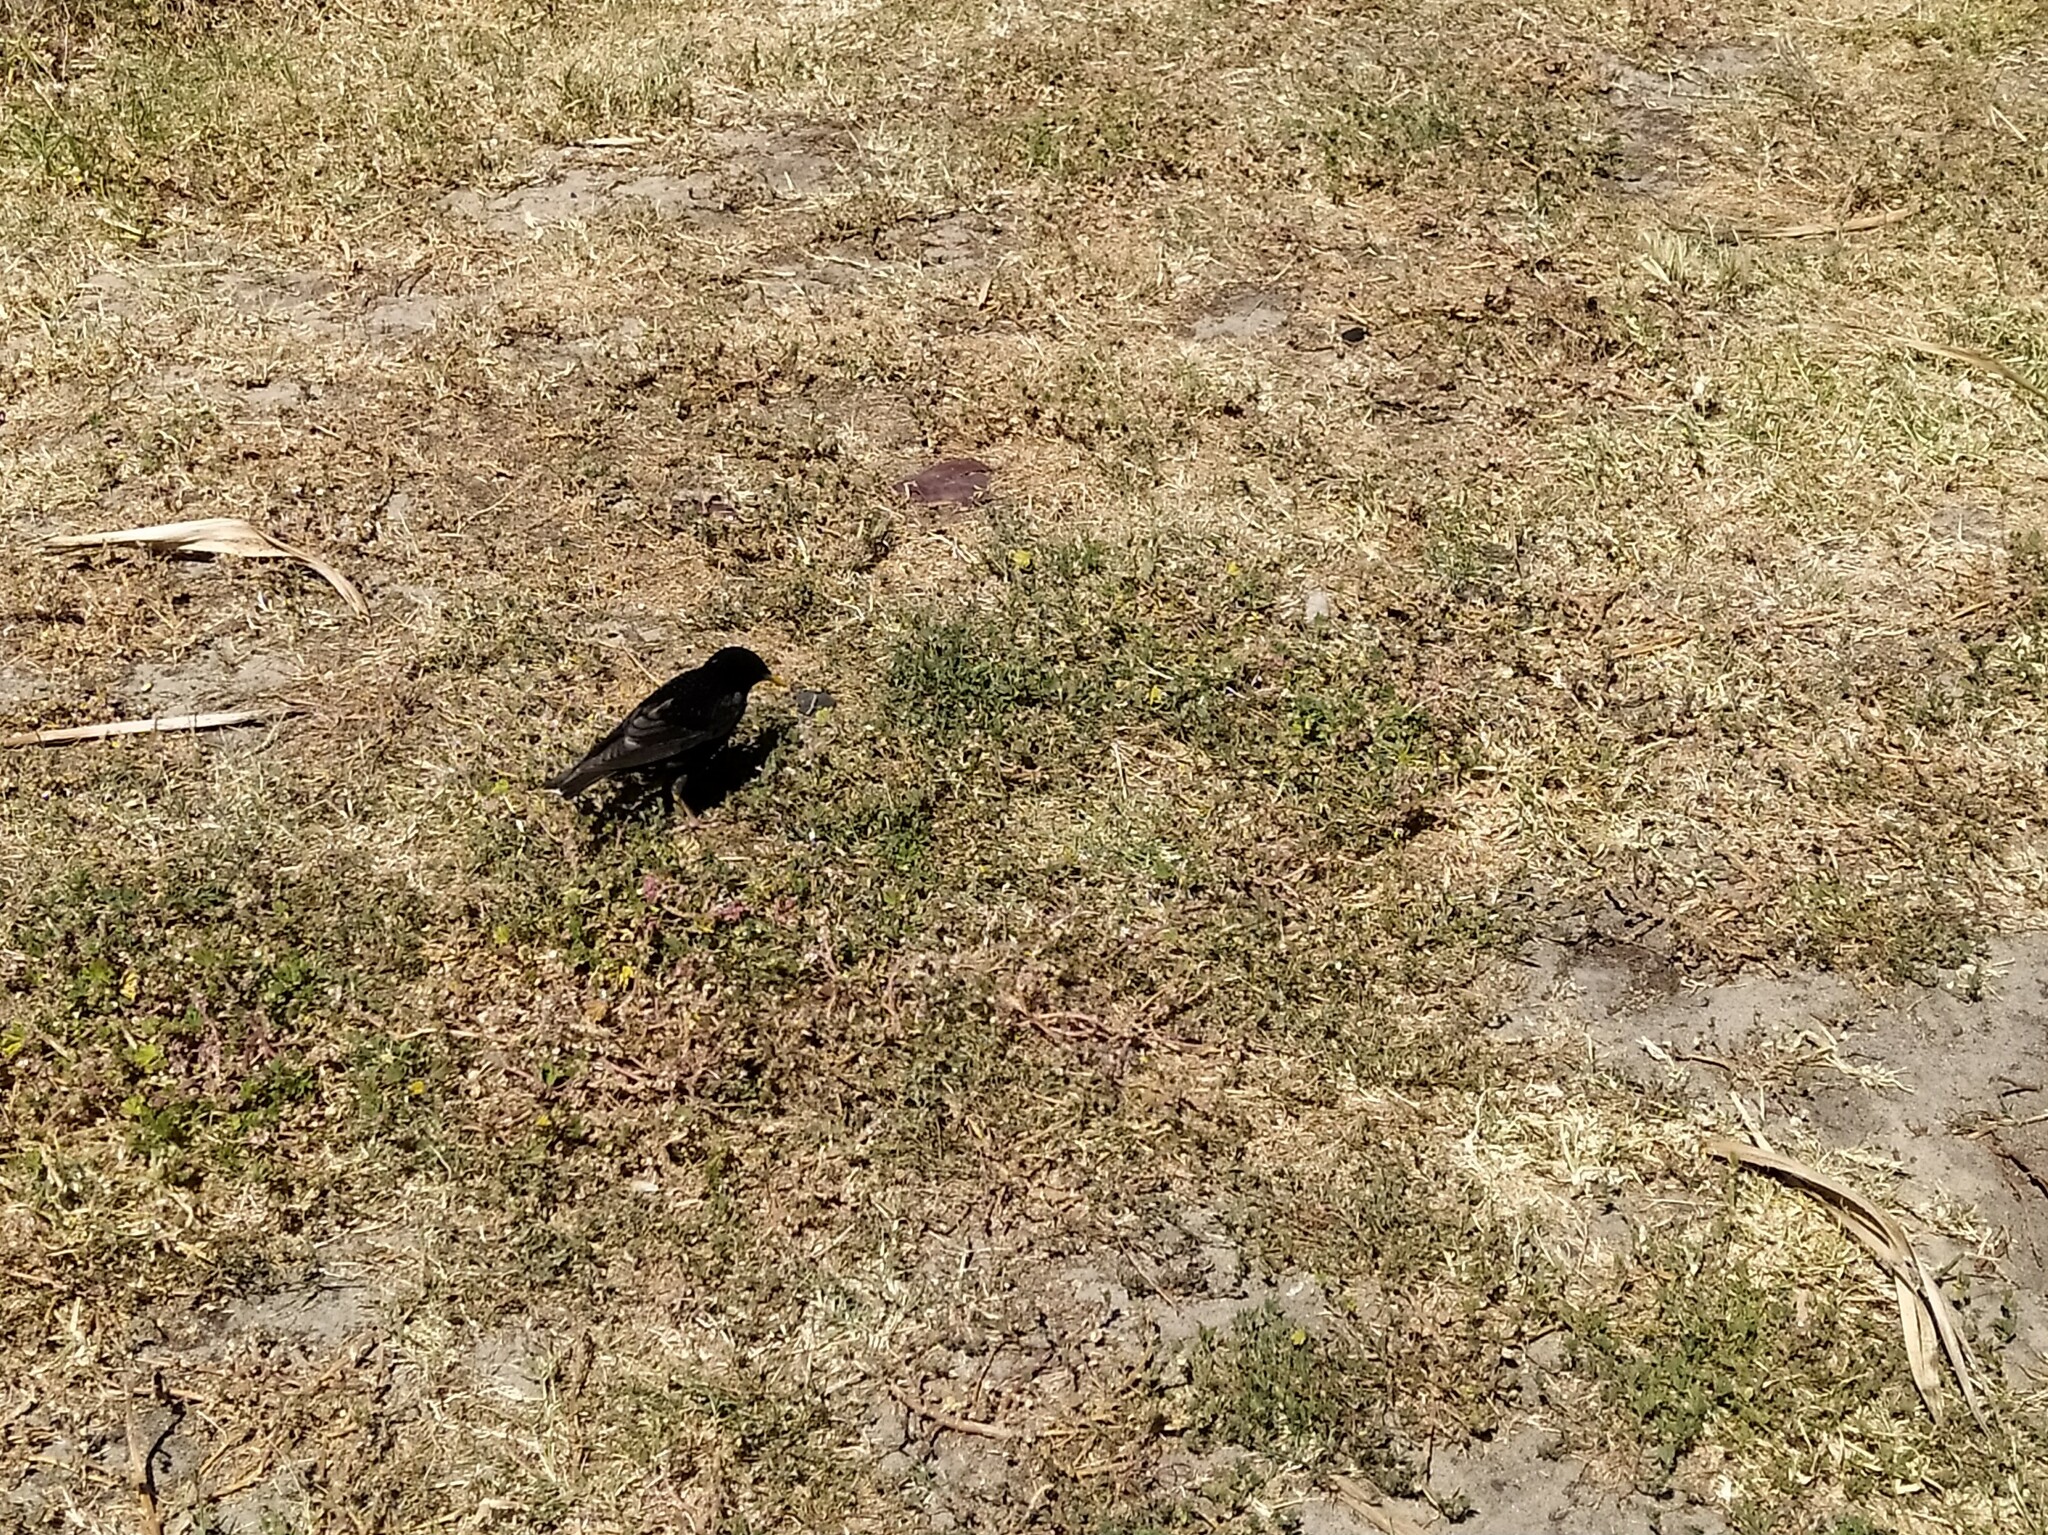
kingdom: Animalia
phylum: Chordata
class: Aves
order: Passeriformes
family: Sturnidae
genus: Sturnus
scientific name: Sturnus vulgaris
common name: Common starling
